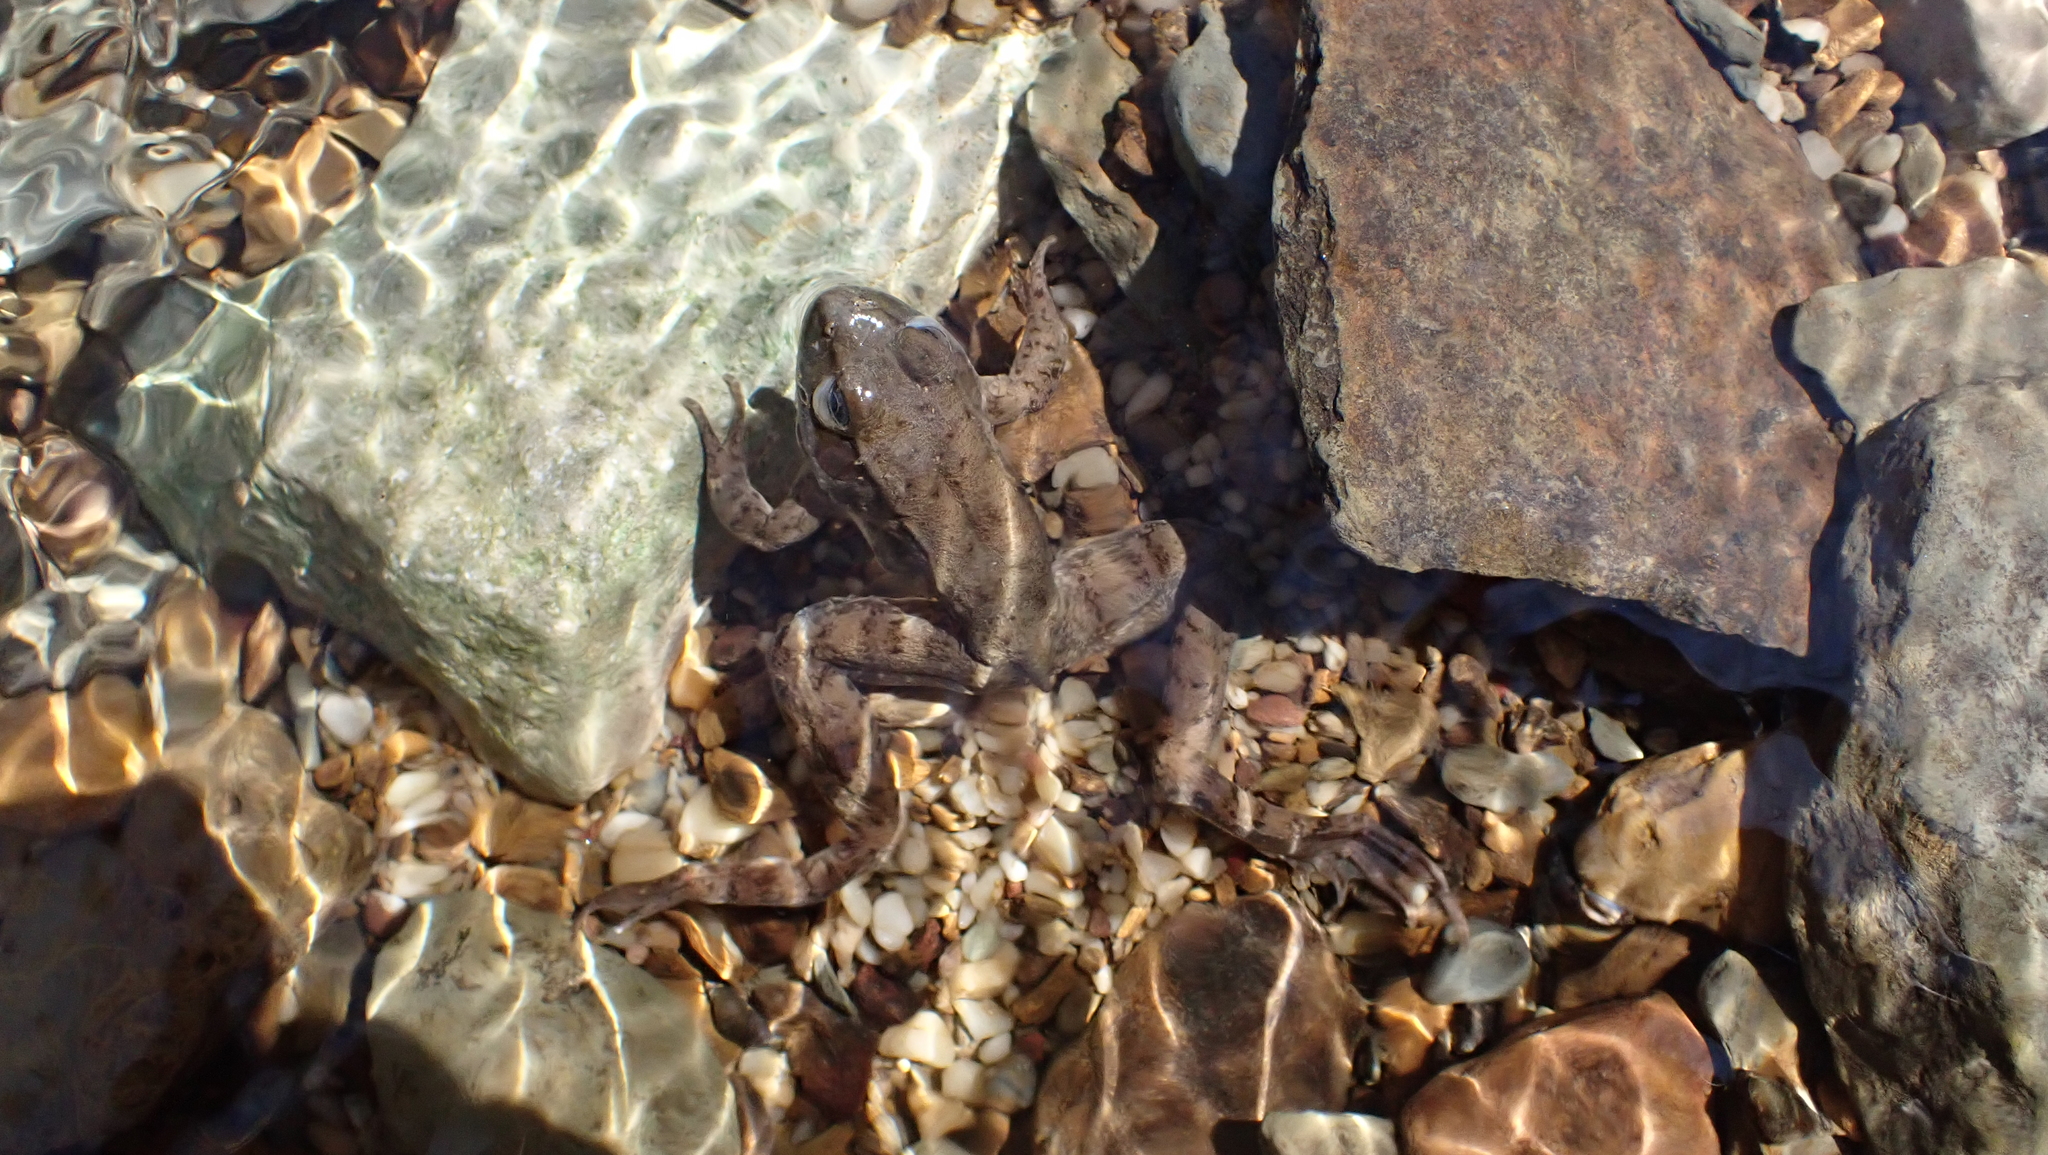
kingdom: Animalia
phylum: Chordata
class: Amphibia
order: Anura
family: Ranidae
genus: Lithobates
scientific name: Lithobates clamitans
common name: Green frog
